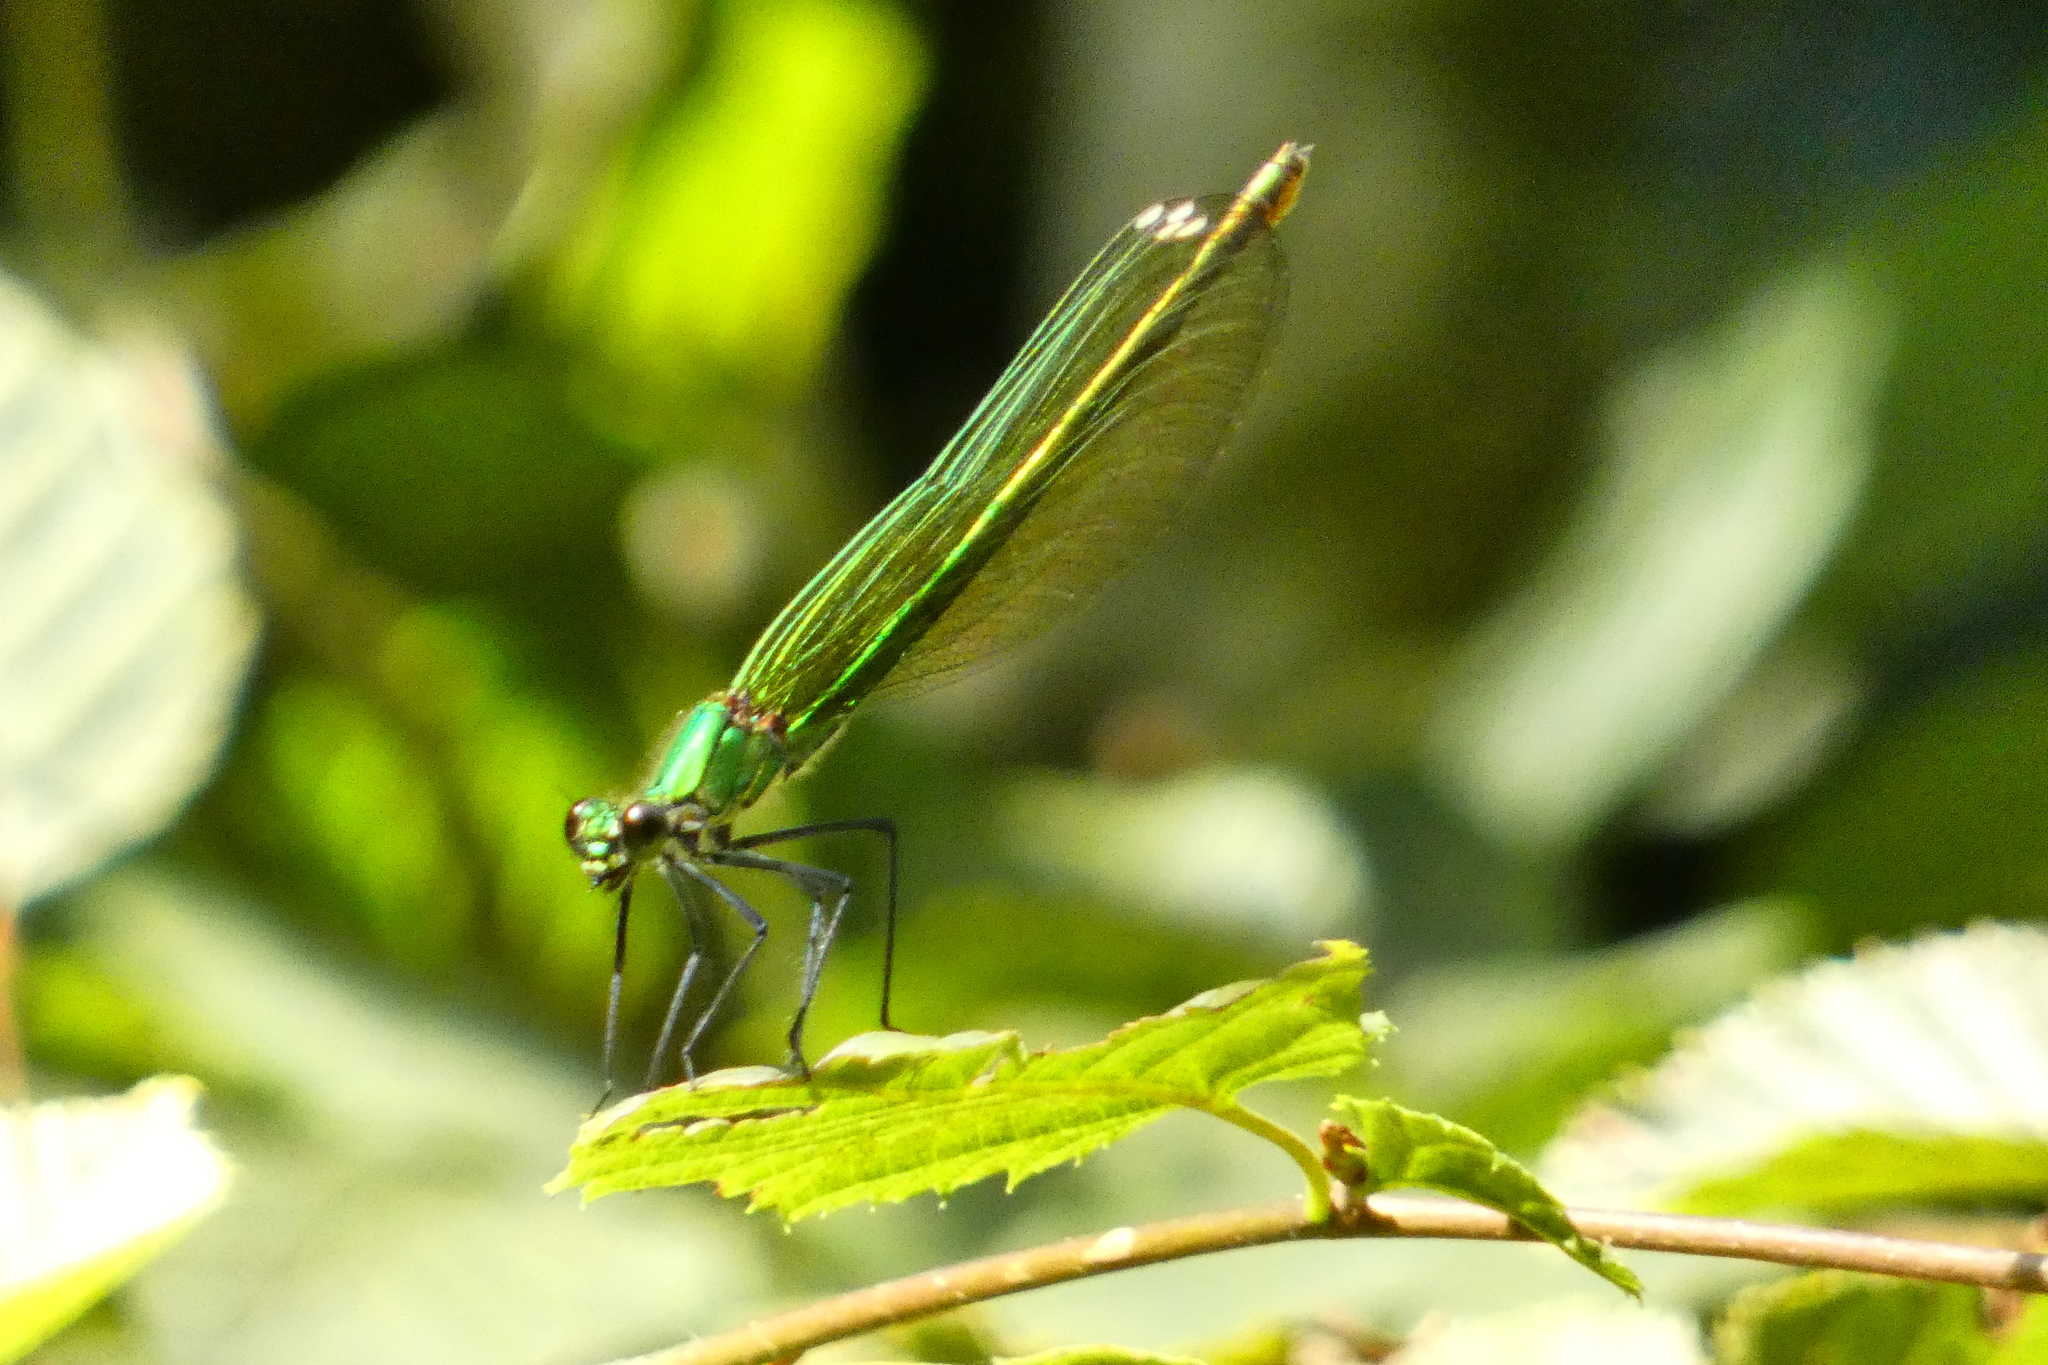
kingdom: Animalia
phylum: Arthropoda
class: Insecta
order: Odonata
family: Calopterygidae
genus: Calopteryx
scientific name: Calopteryx splendens
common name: Banded demoiselle
